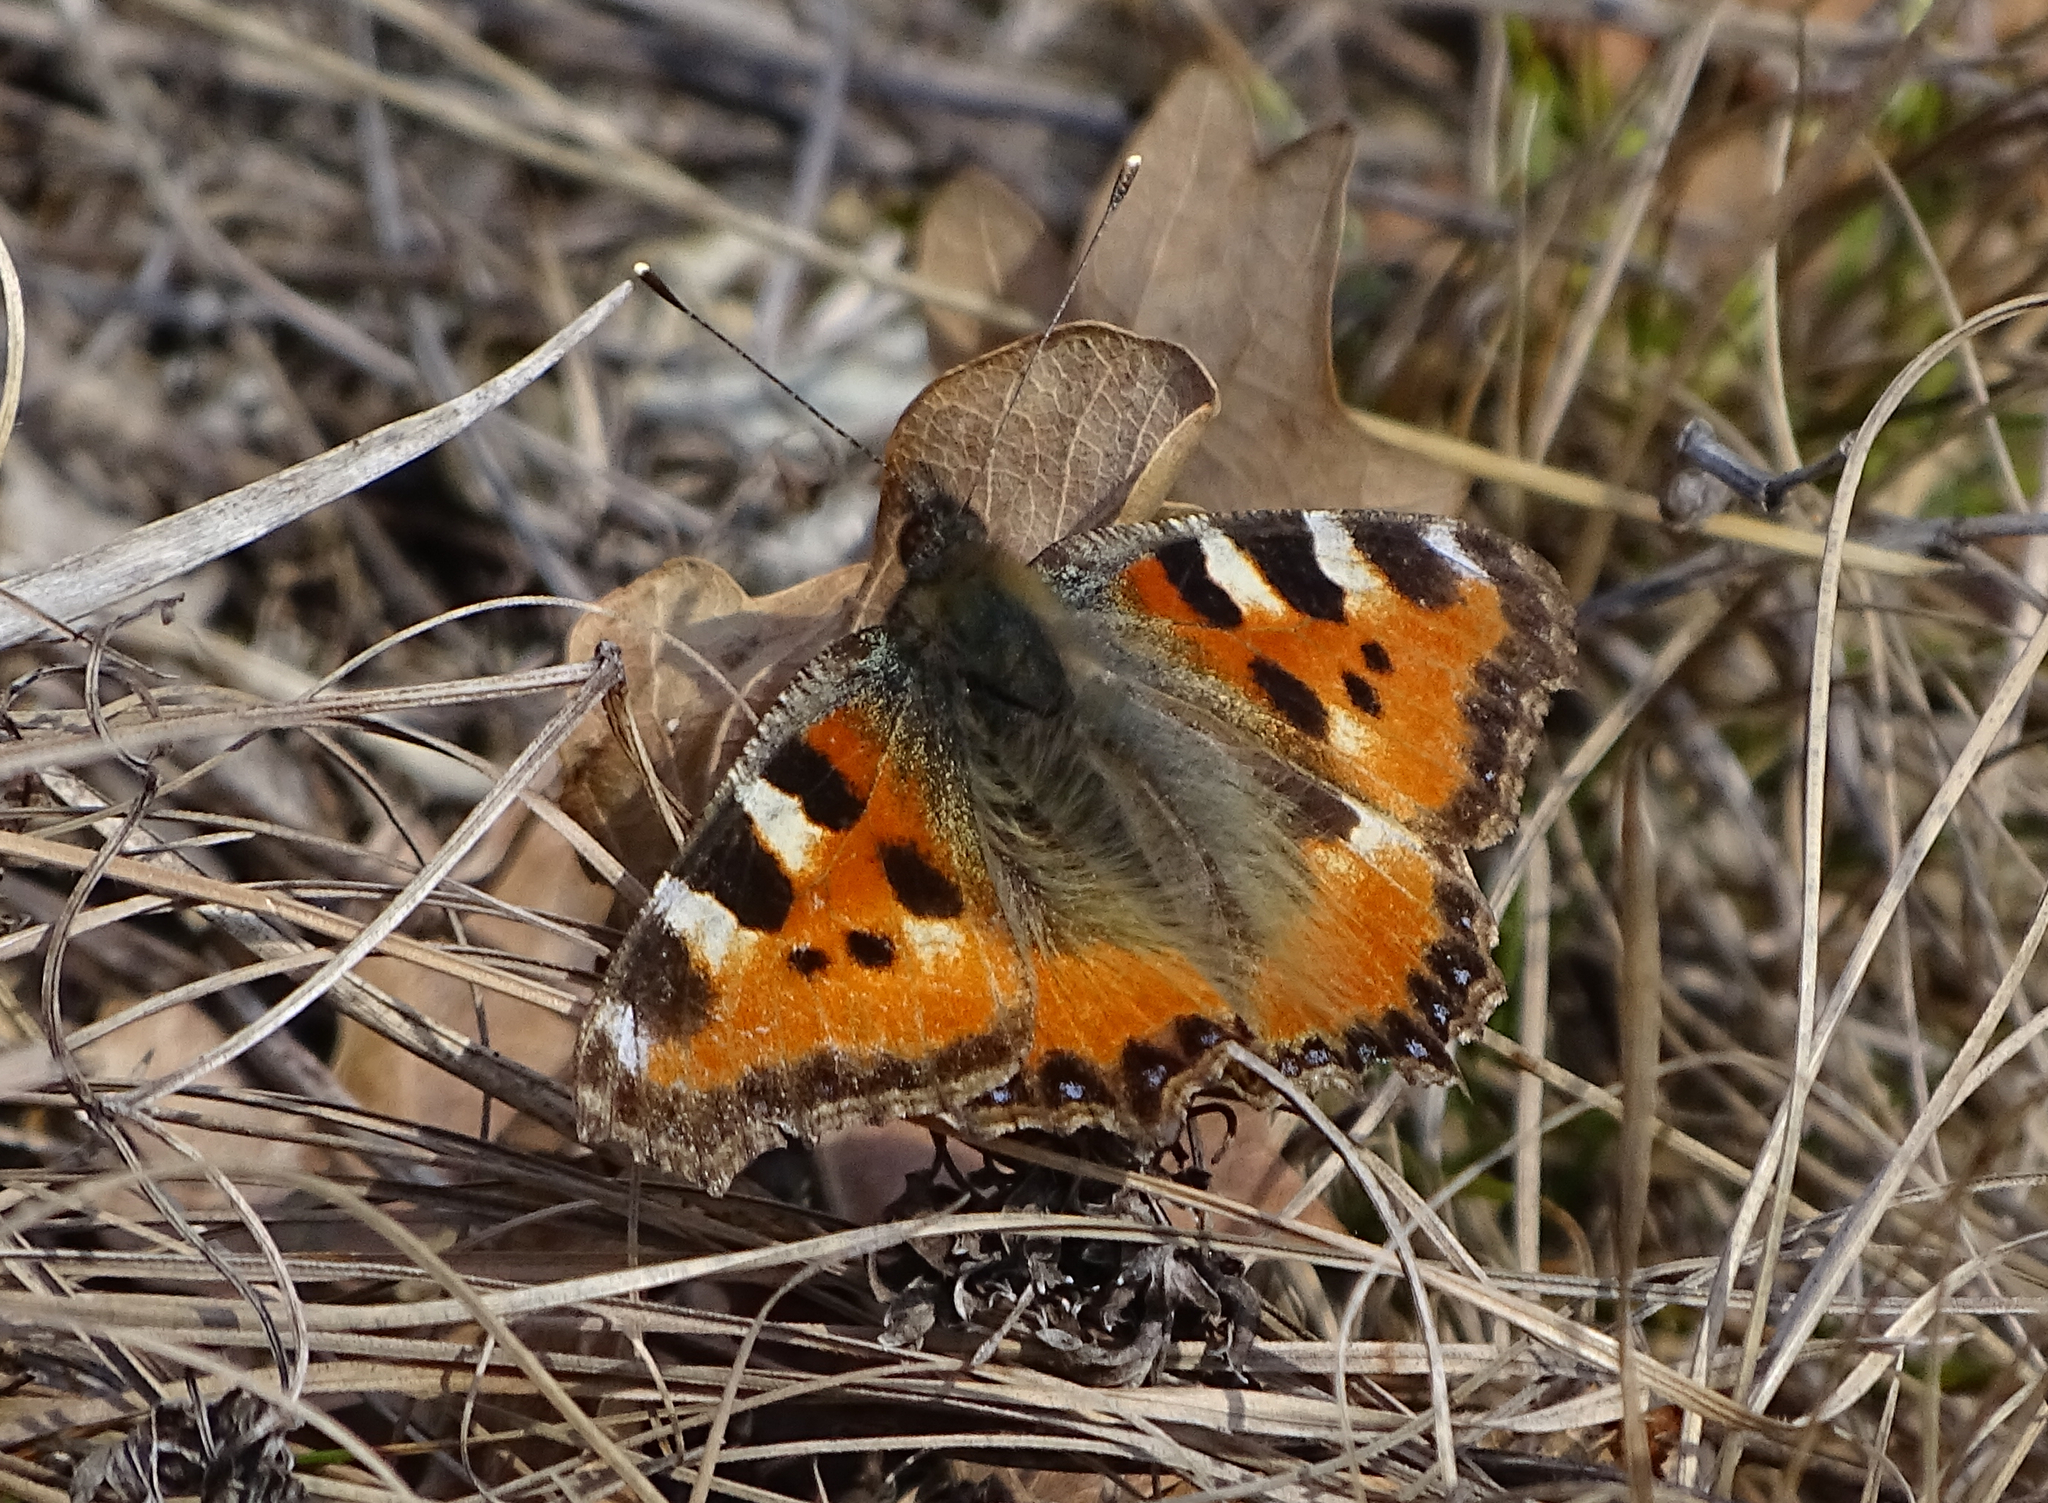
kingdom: Animalia
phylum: Arthropoda
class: Insecta
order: Lepidoptera
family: Nymphalidae
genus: Aglais
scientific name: Aglais urticae
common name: Small tortoiseshell
